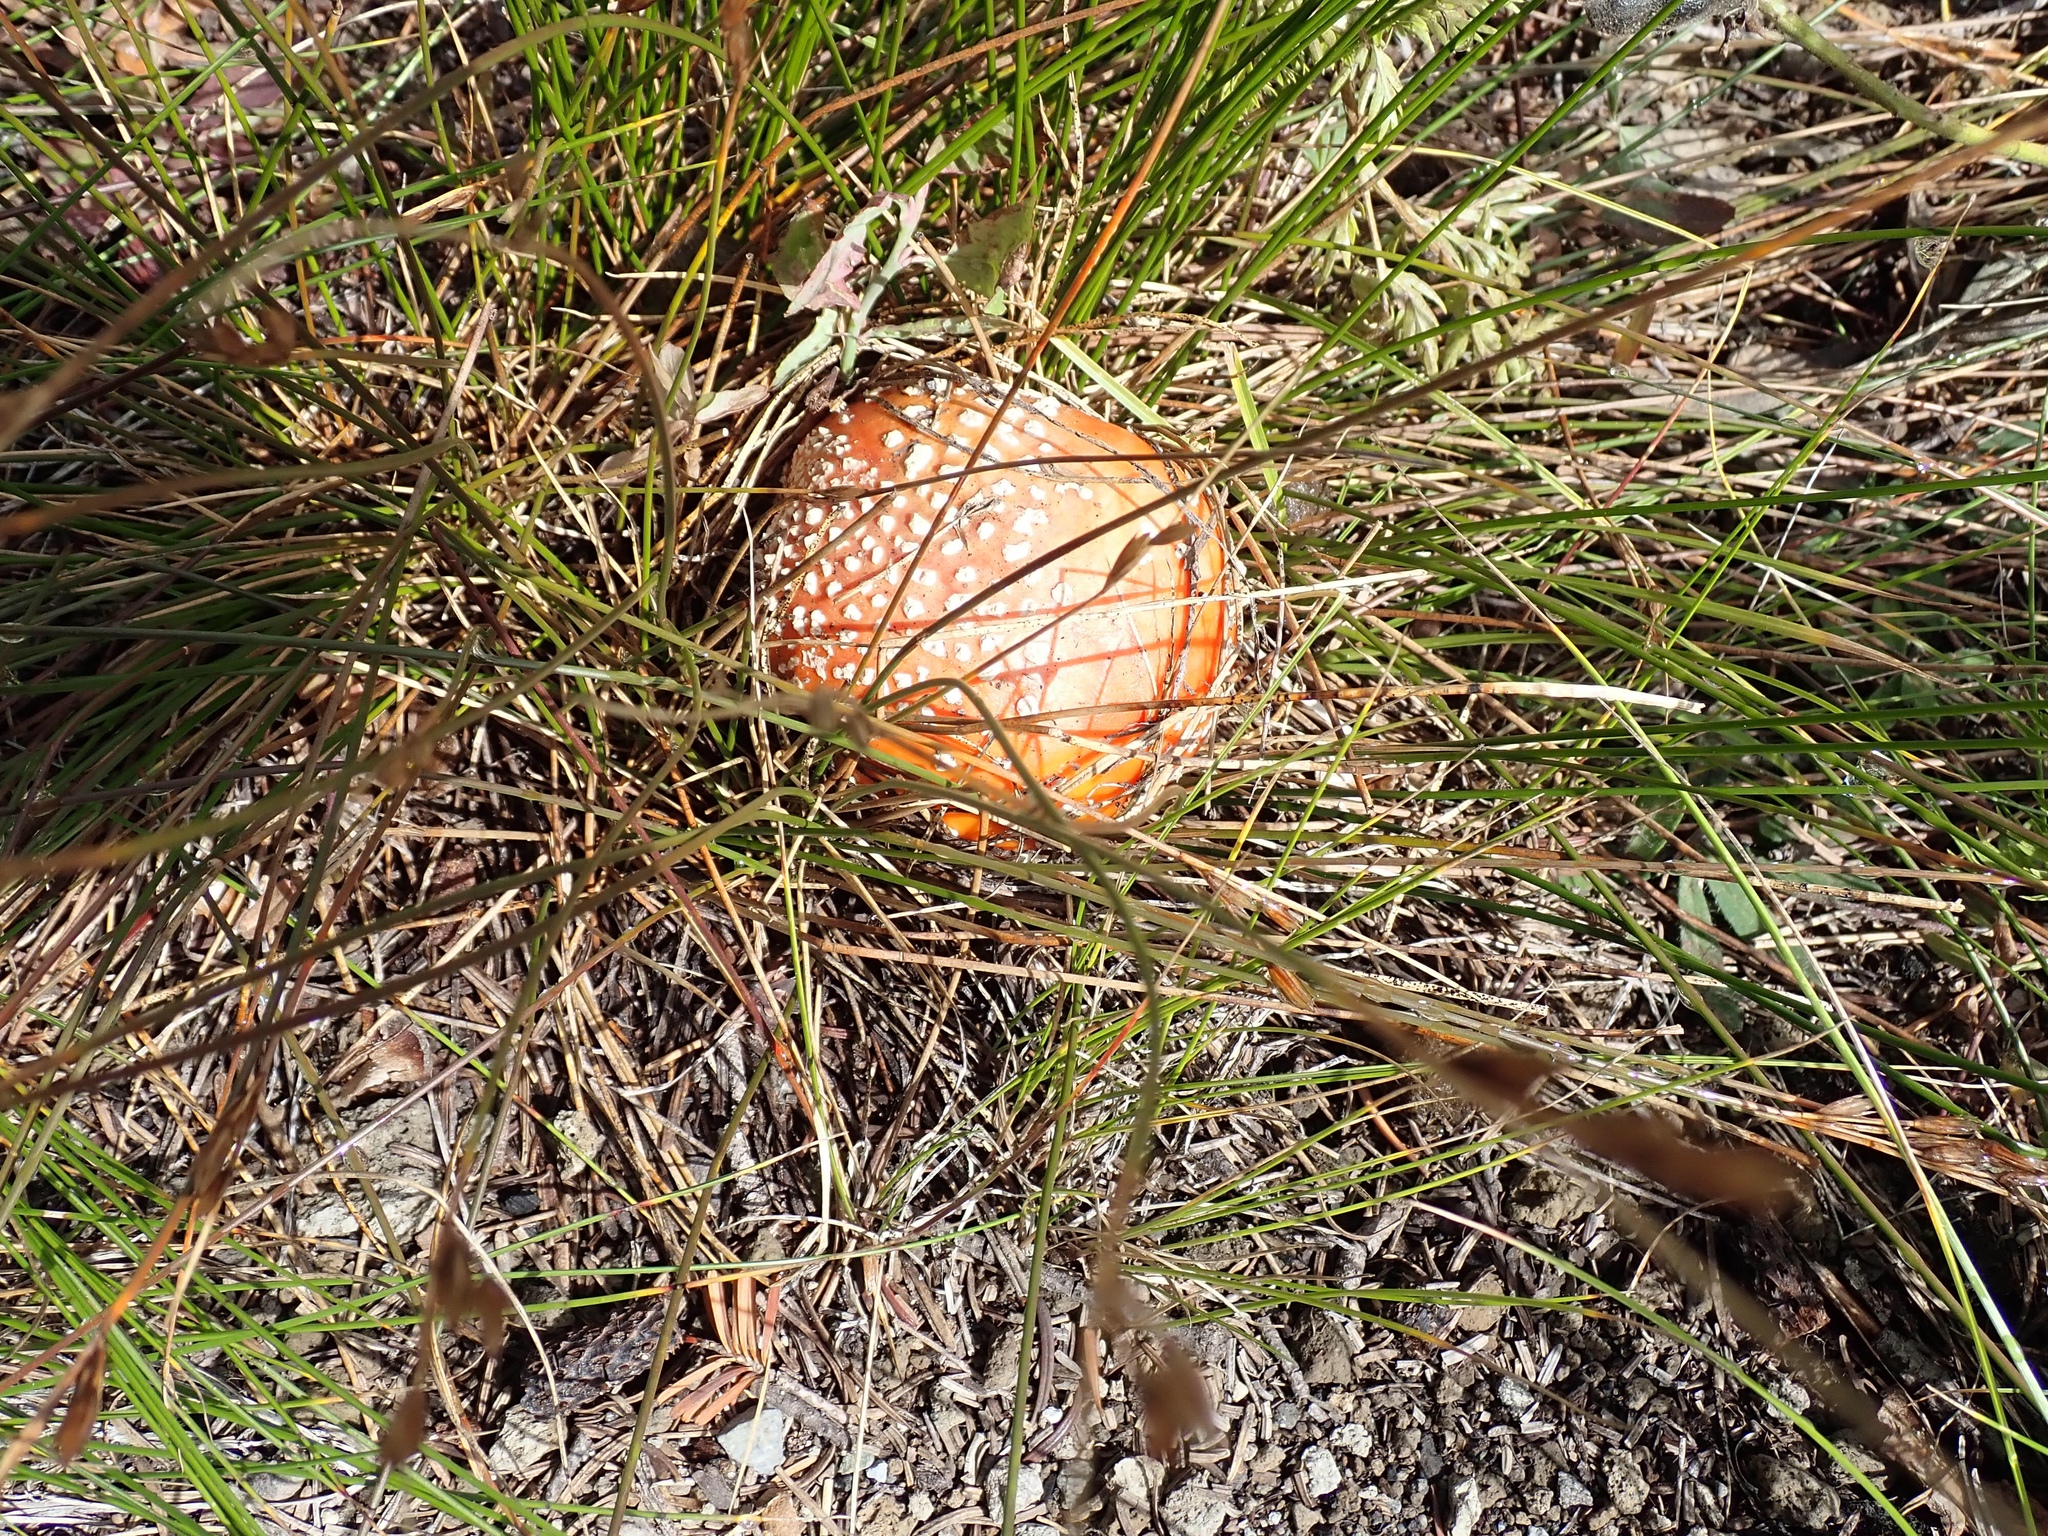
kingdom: Fungi
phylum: Basidiomycota
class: Agaricomycetes
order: Agaricales
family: Amanitaceae
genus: Amanita
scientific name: Amanita muscaria
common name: Fly agaric
